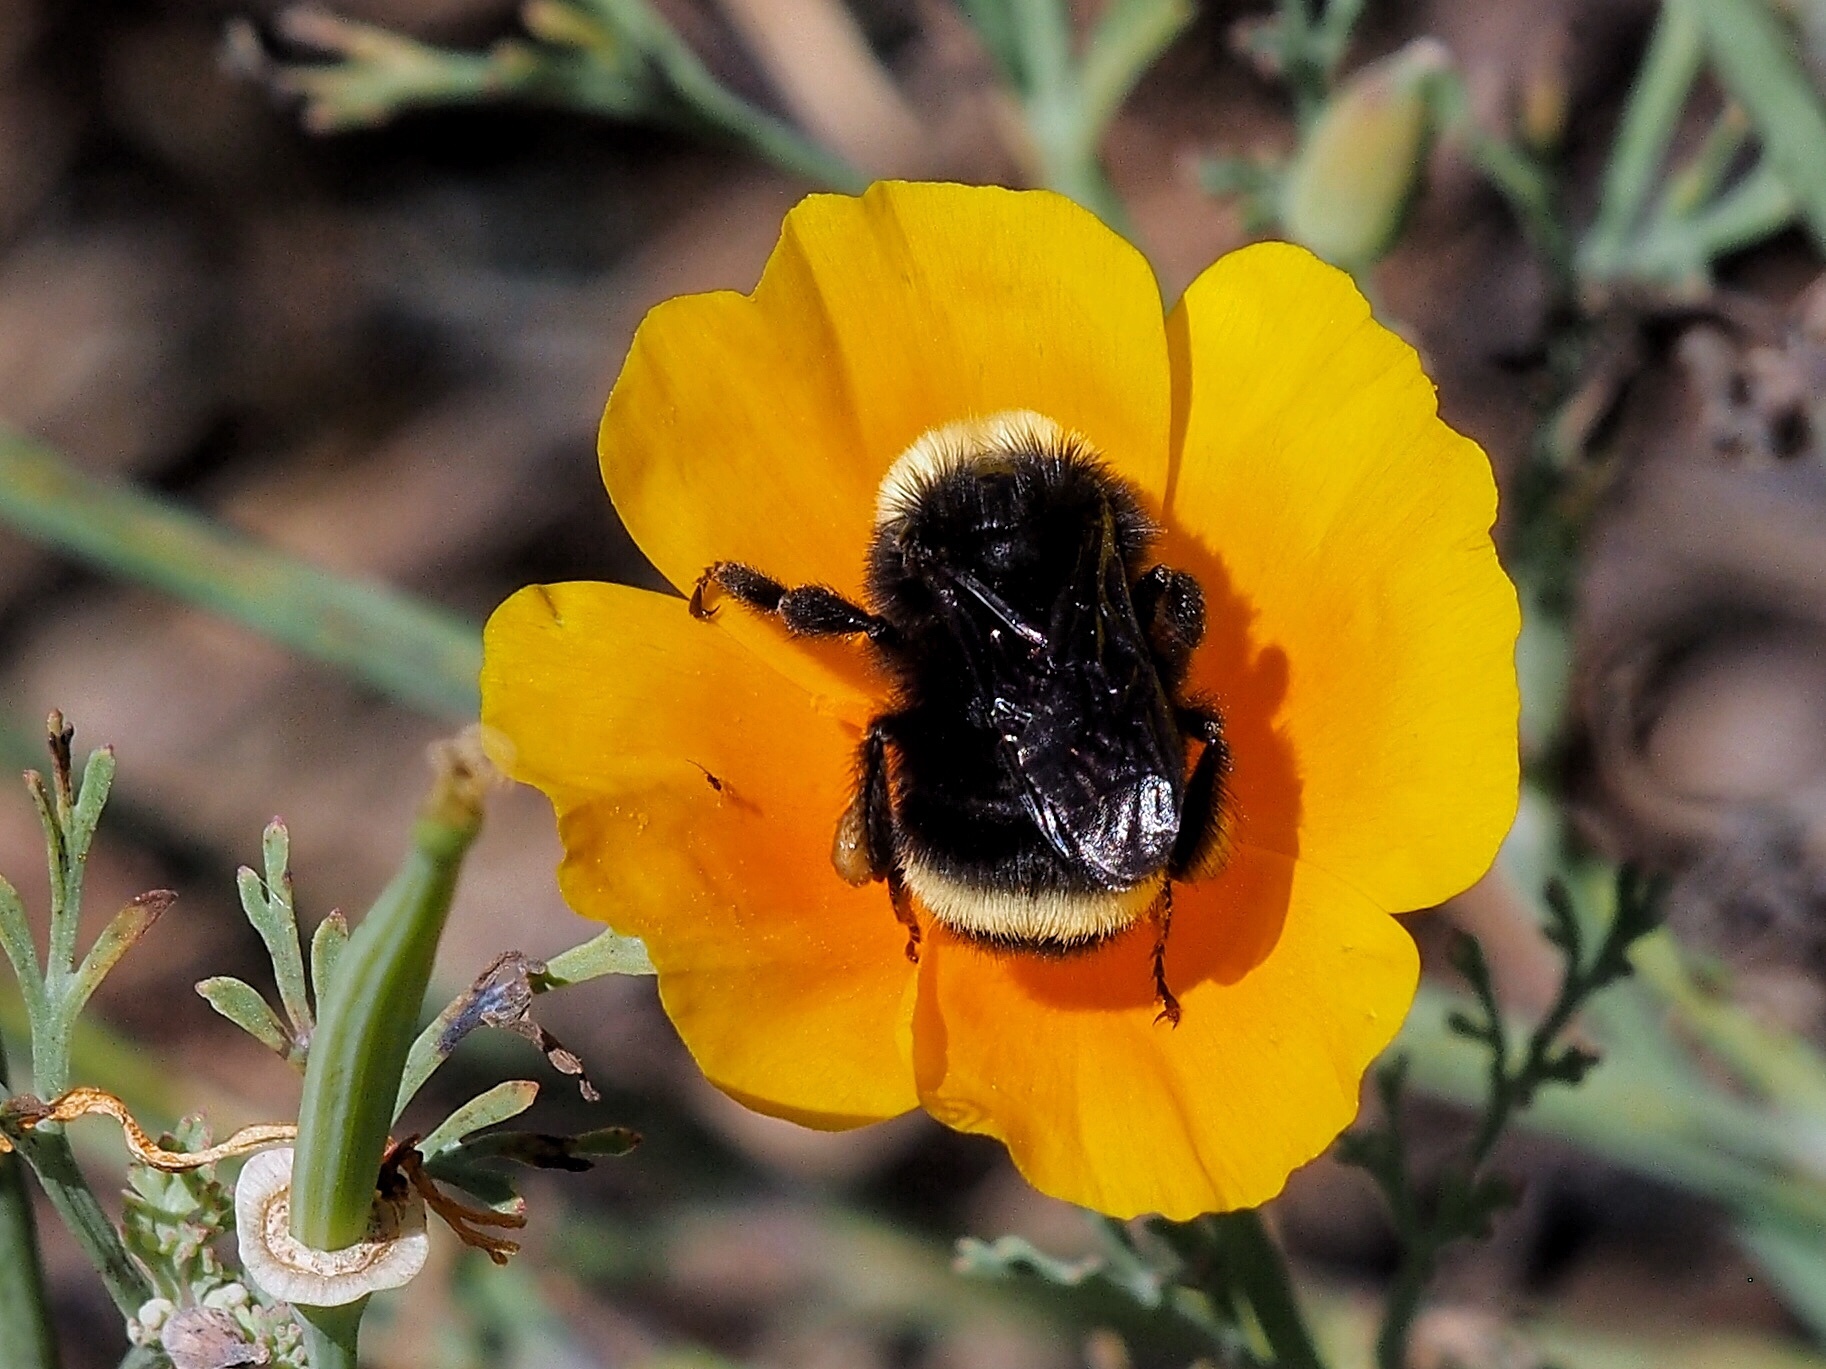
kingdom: Animalia
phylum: Arthropoda
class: Insecta
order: Hymenoptera
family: Apidae
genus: Bombus
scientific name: Bombus vosnesenskii
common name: Vosnesensky bumble bee
